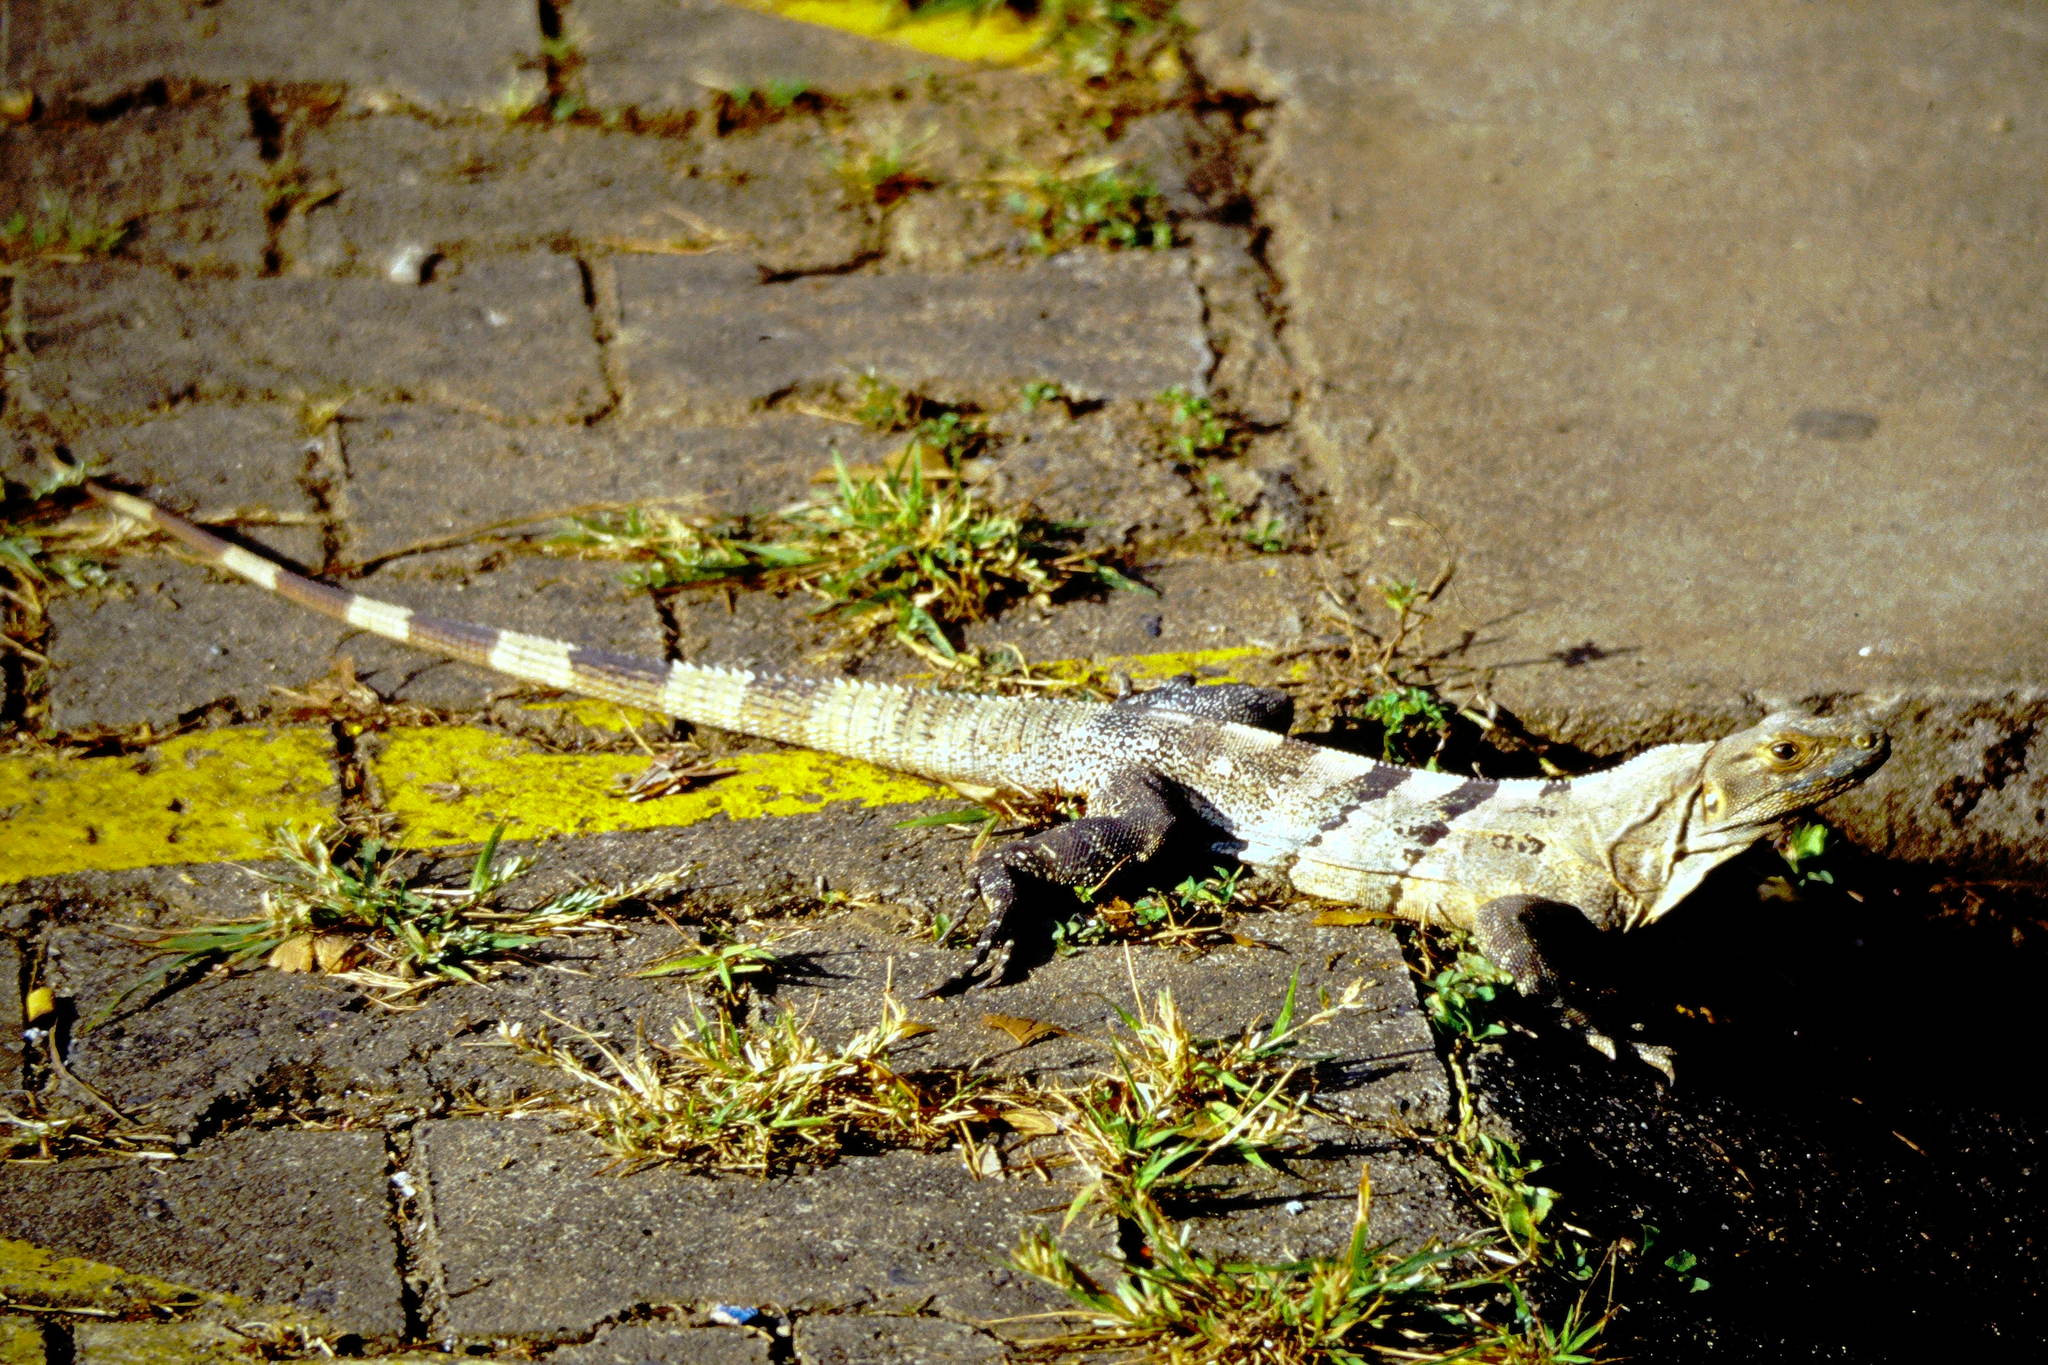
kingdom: Animalia
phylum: Chordata
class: Squamata
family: Iguanidae
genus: Ctenosaura
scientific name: Ctenosaura similis
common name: Black spiny-tailed iguana
